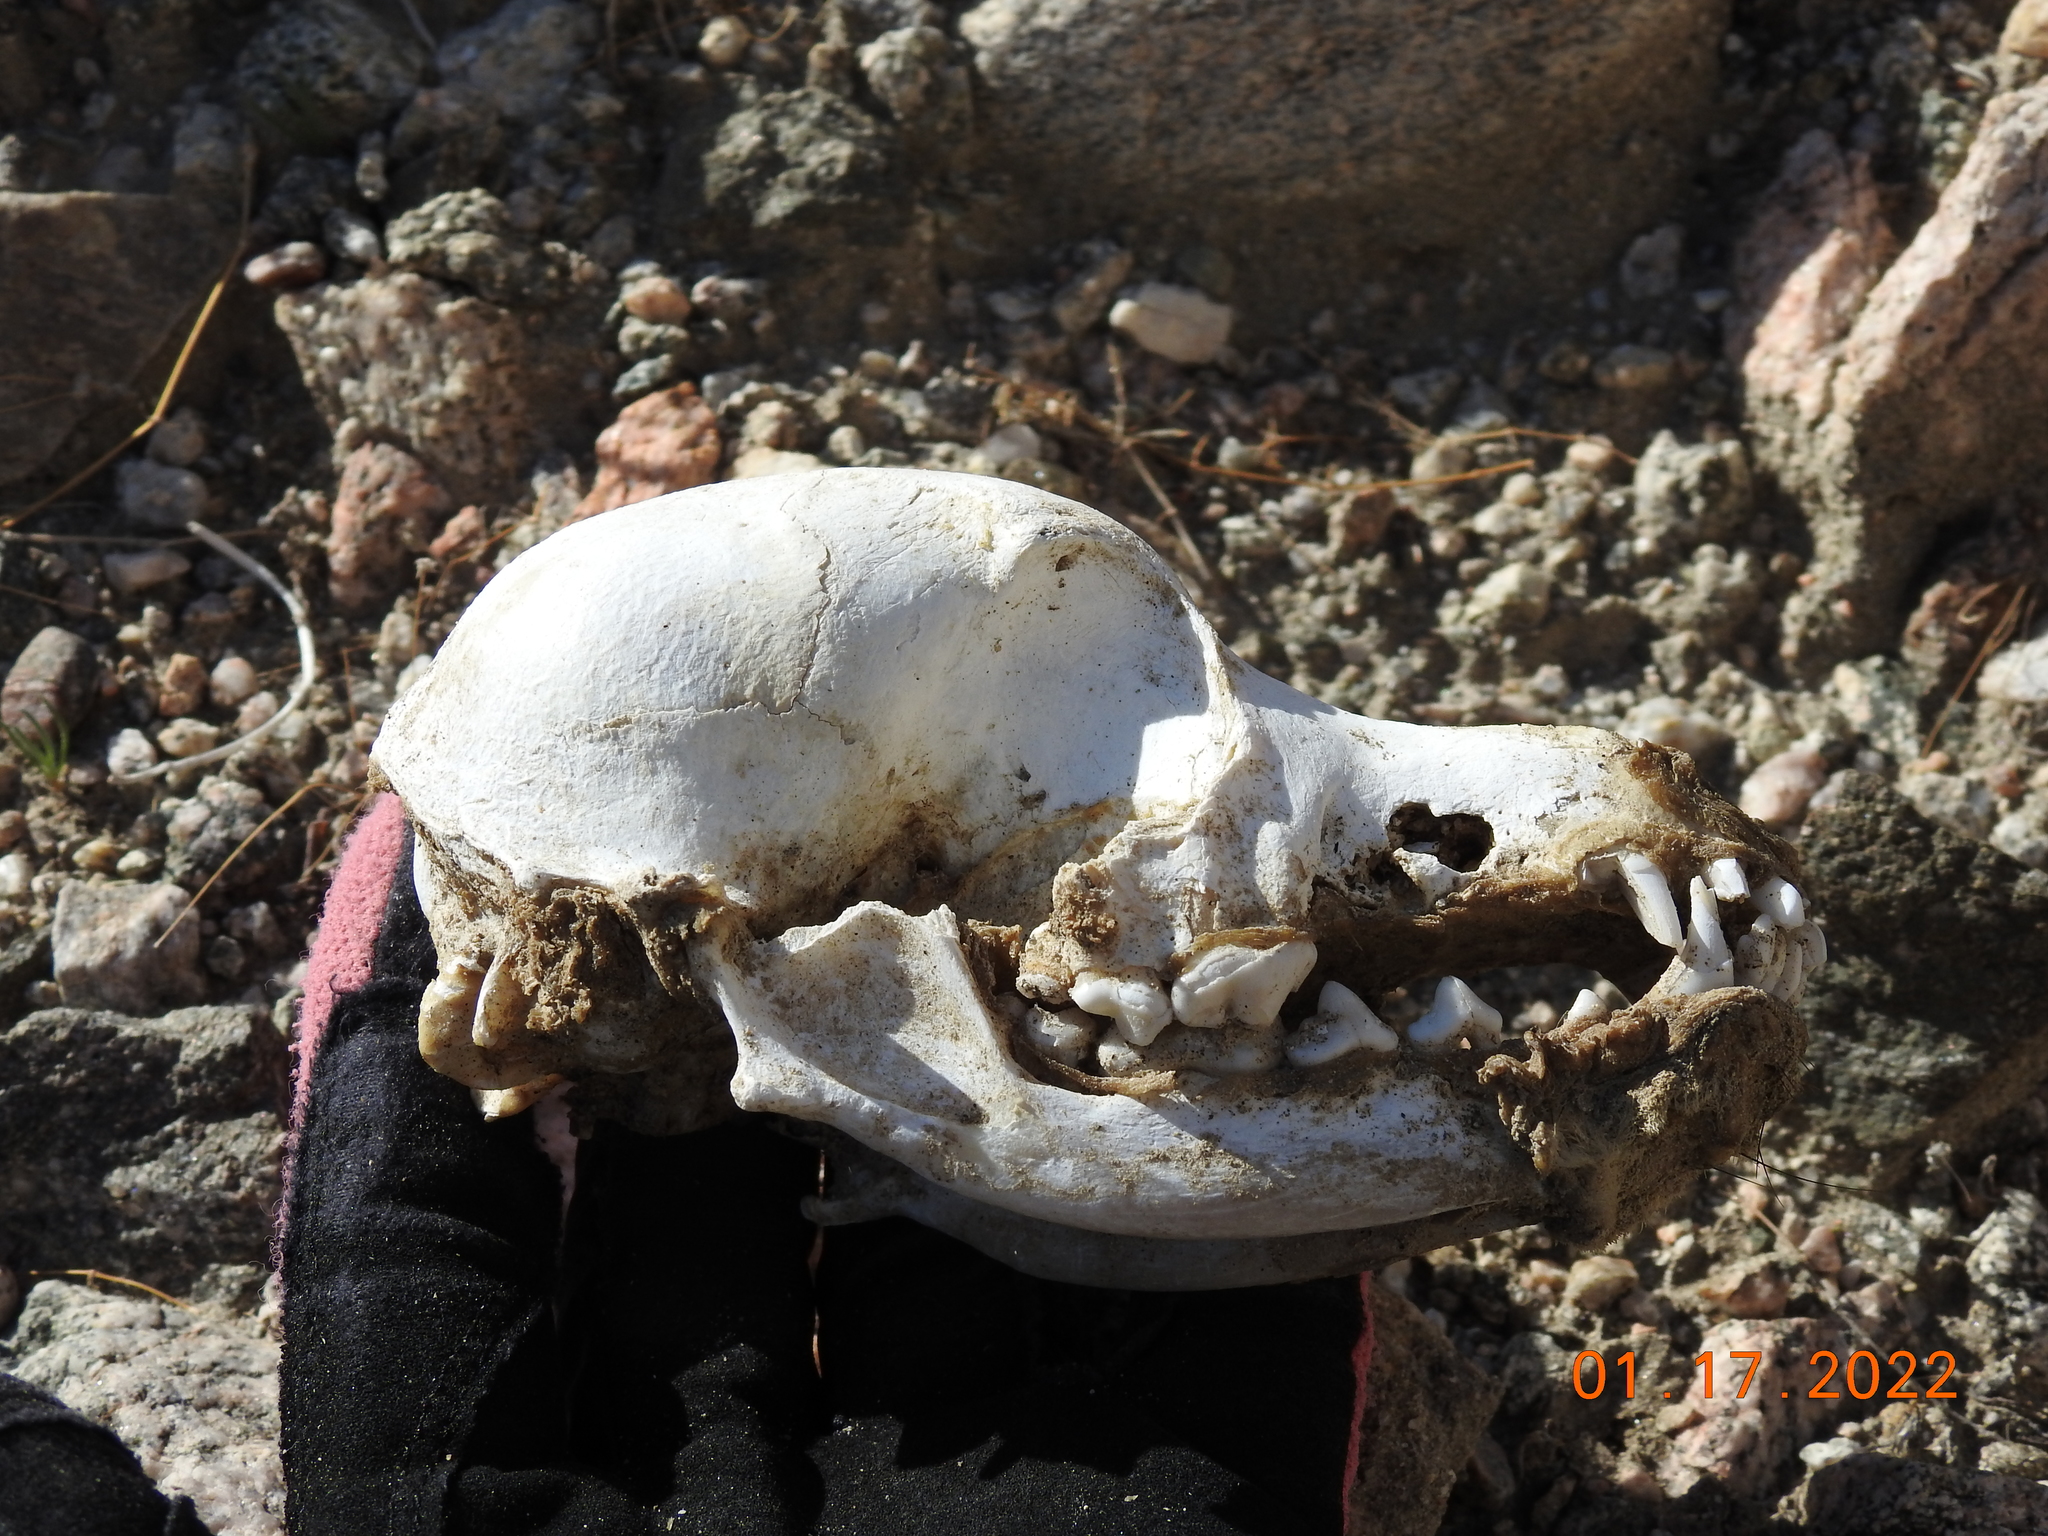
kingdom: Animalia
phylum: Chordata
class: Mammalia
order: Carnivora
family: Canidae
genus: Canis
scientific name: Canis lupus
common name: Gray wolf
